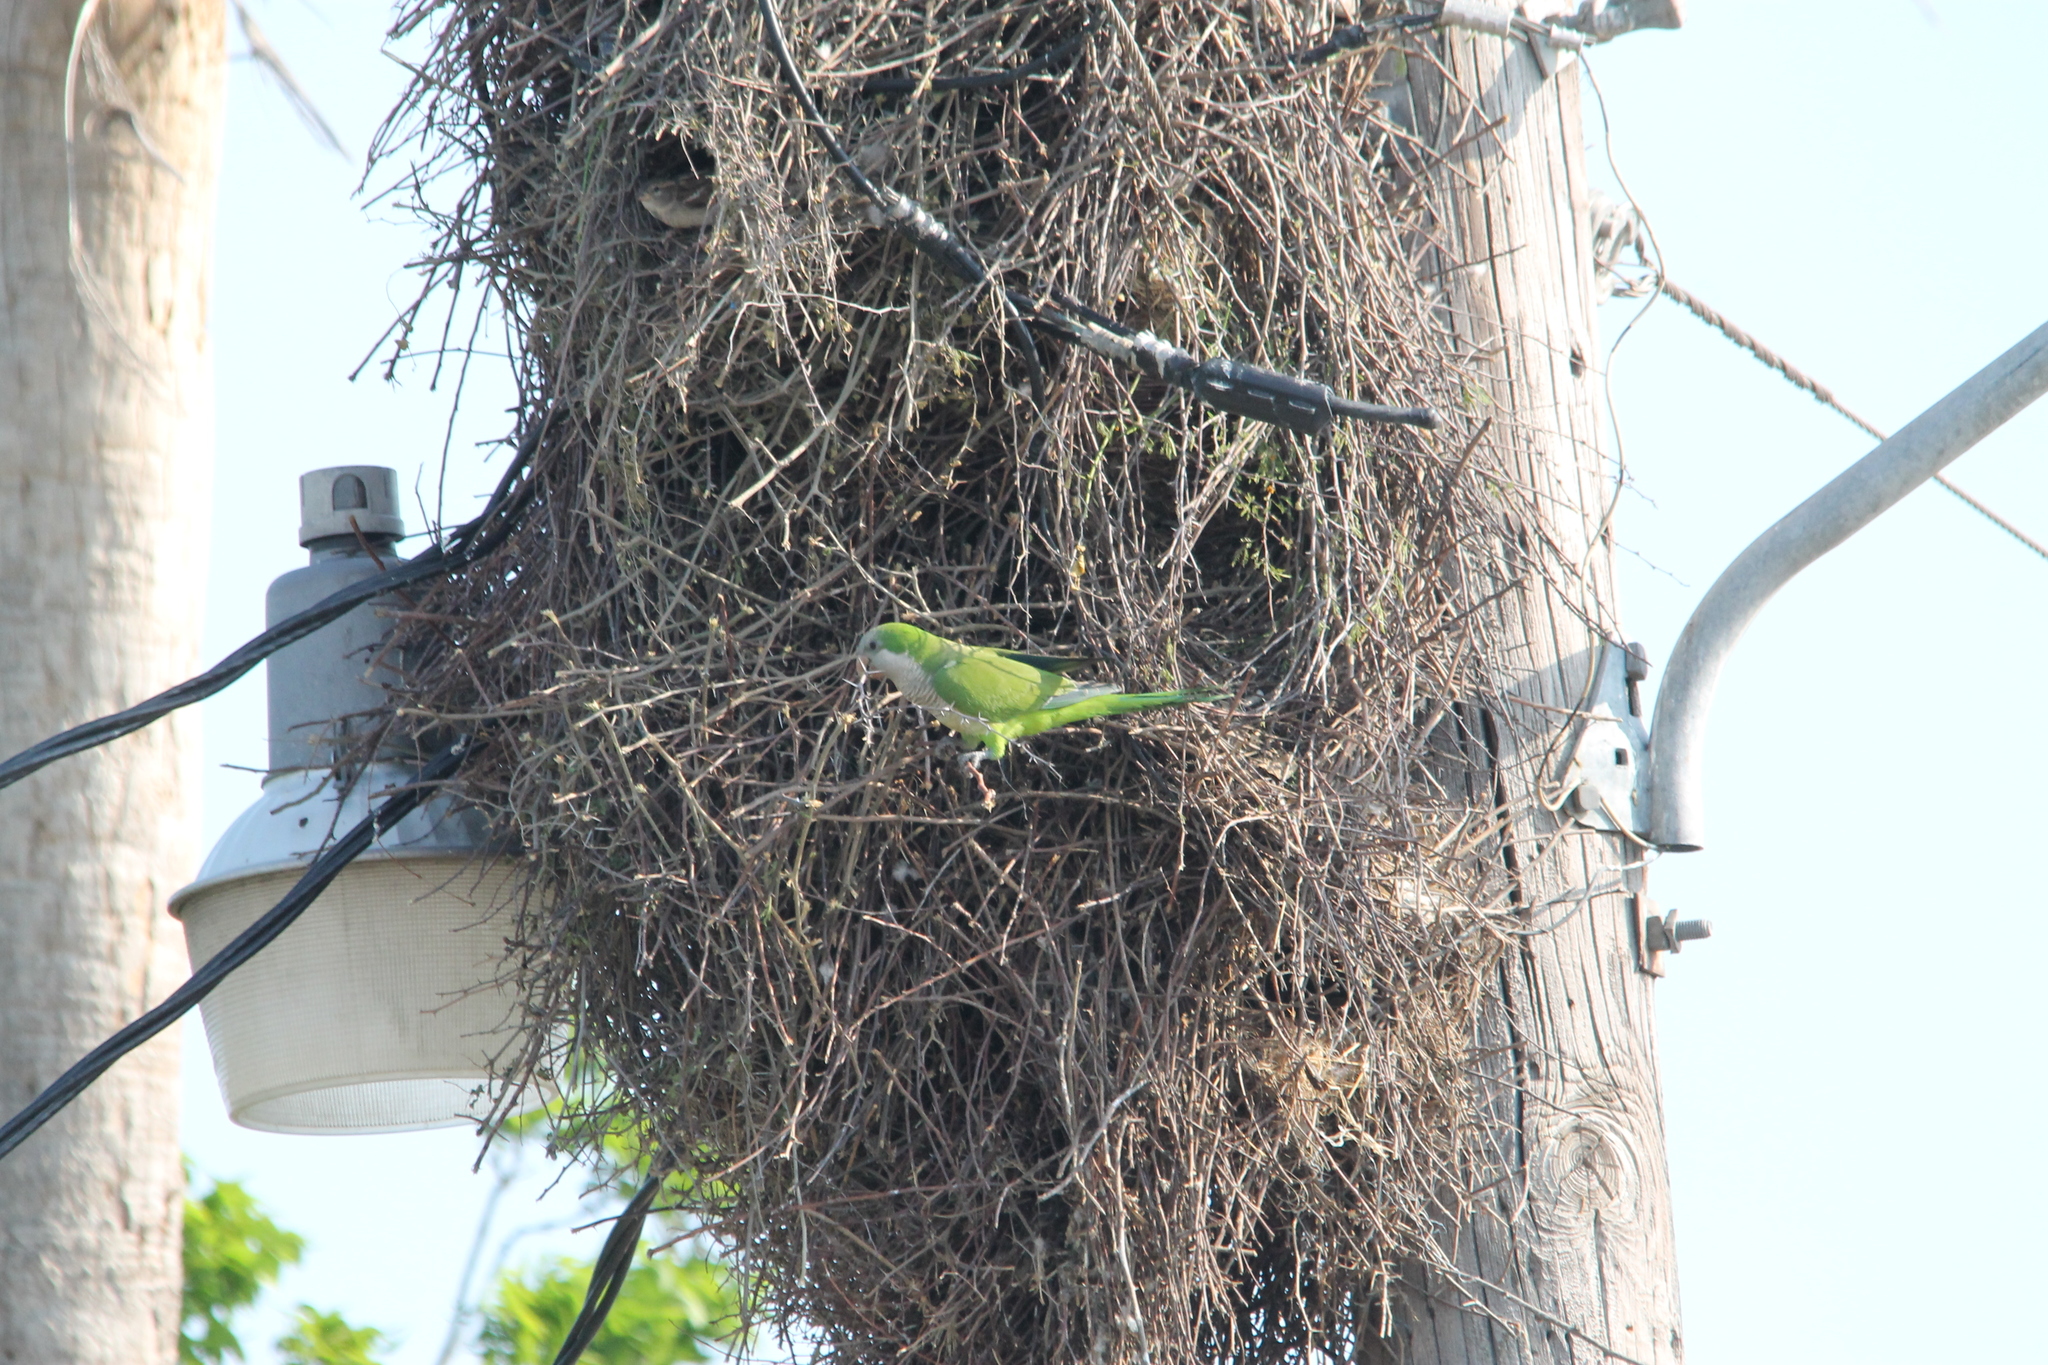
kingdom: Animalia
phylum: Chordata
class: Aves
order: Psittaciformes
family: Psittacidae
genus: Myiopsitta
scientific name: Myiopsitta monachus
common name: Monk parakeet
